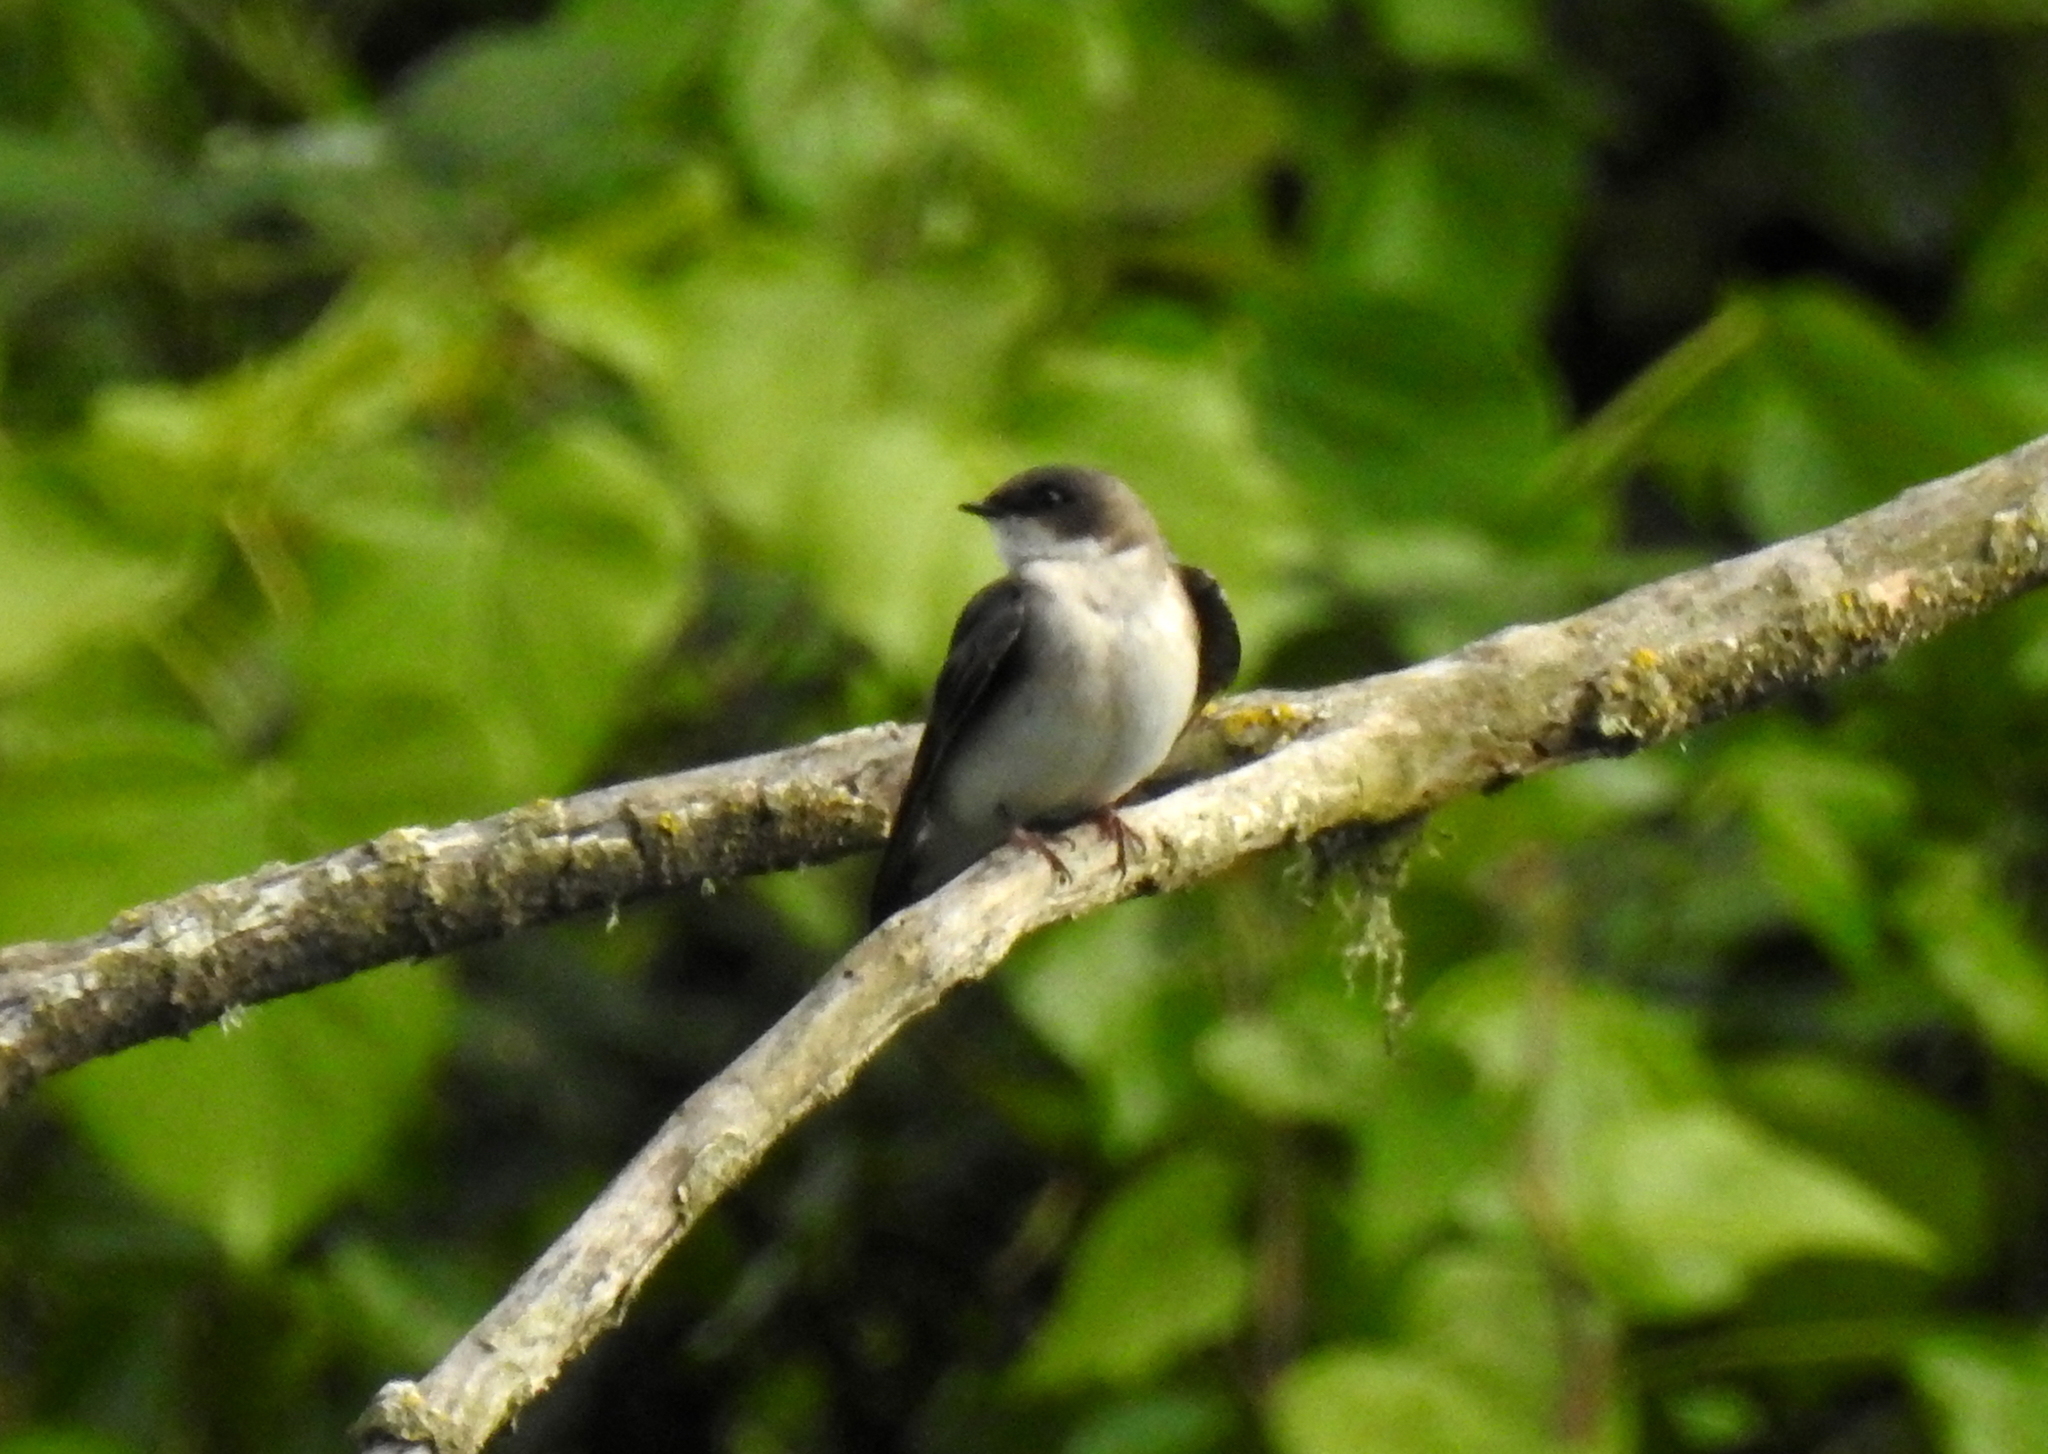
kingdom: Animalia
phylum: Chordata
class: Aves
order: Passeriformes
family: Hirundinidae
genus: Tachycineta
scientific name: Tachycineta bicolor
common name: Tree swallow
